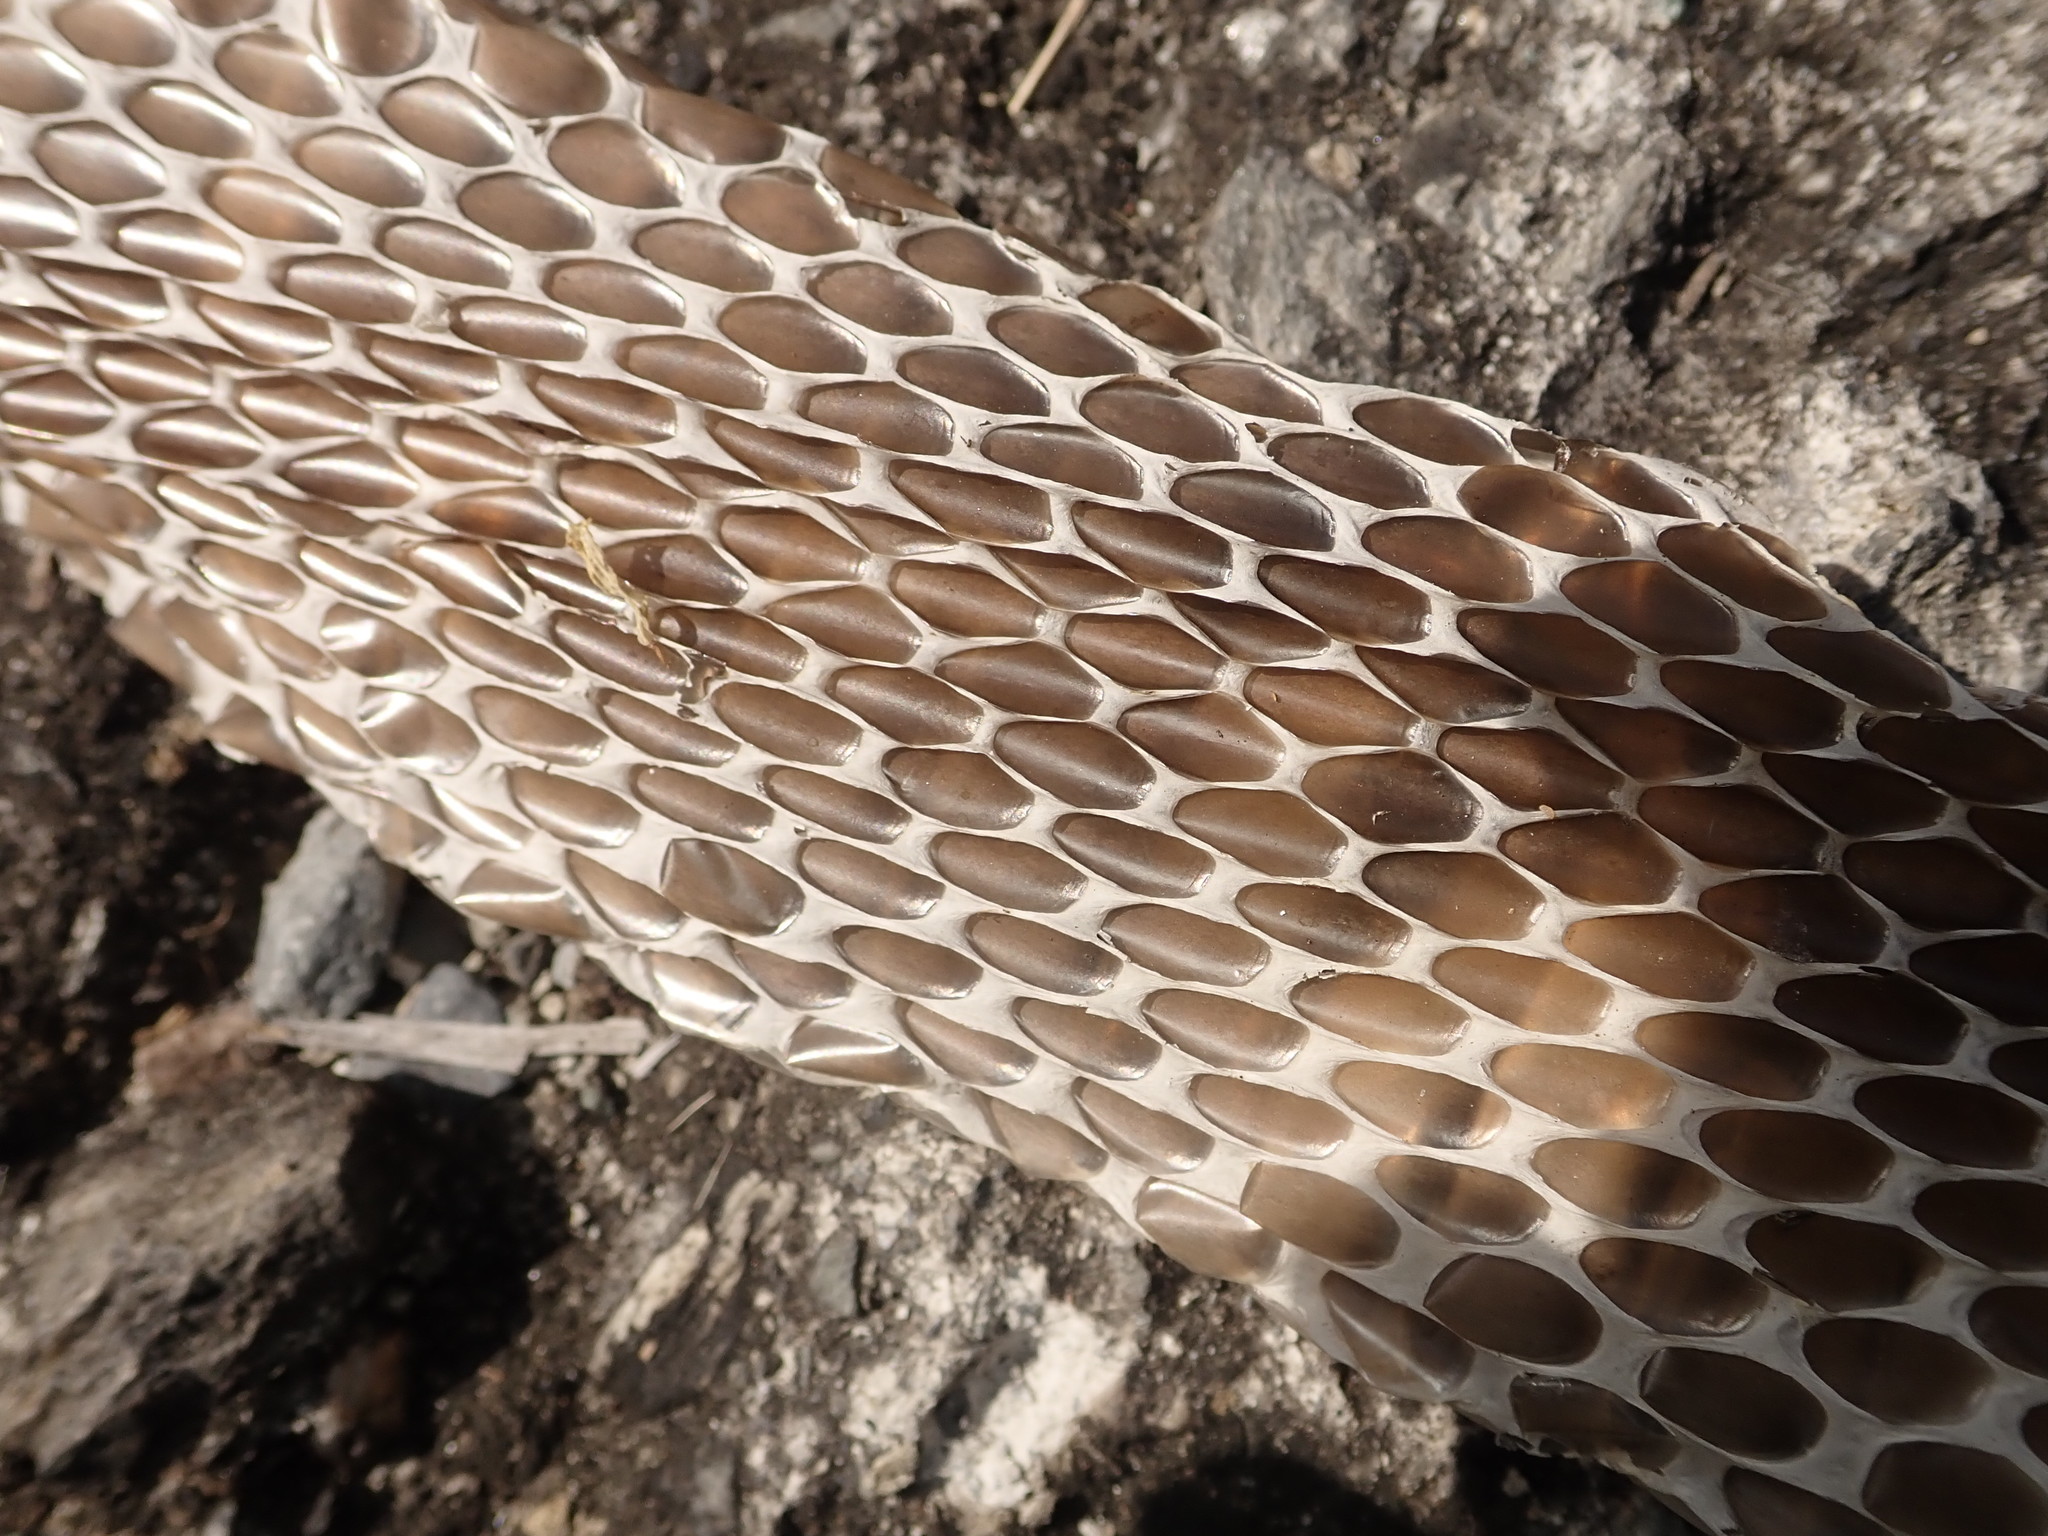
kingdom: Animalia
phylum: Chordata
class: Squamata
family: Colubridae
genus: Ptyas
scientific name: Ptyas mucosa
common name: Oriental ratsnake
